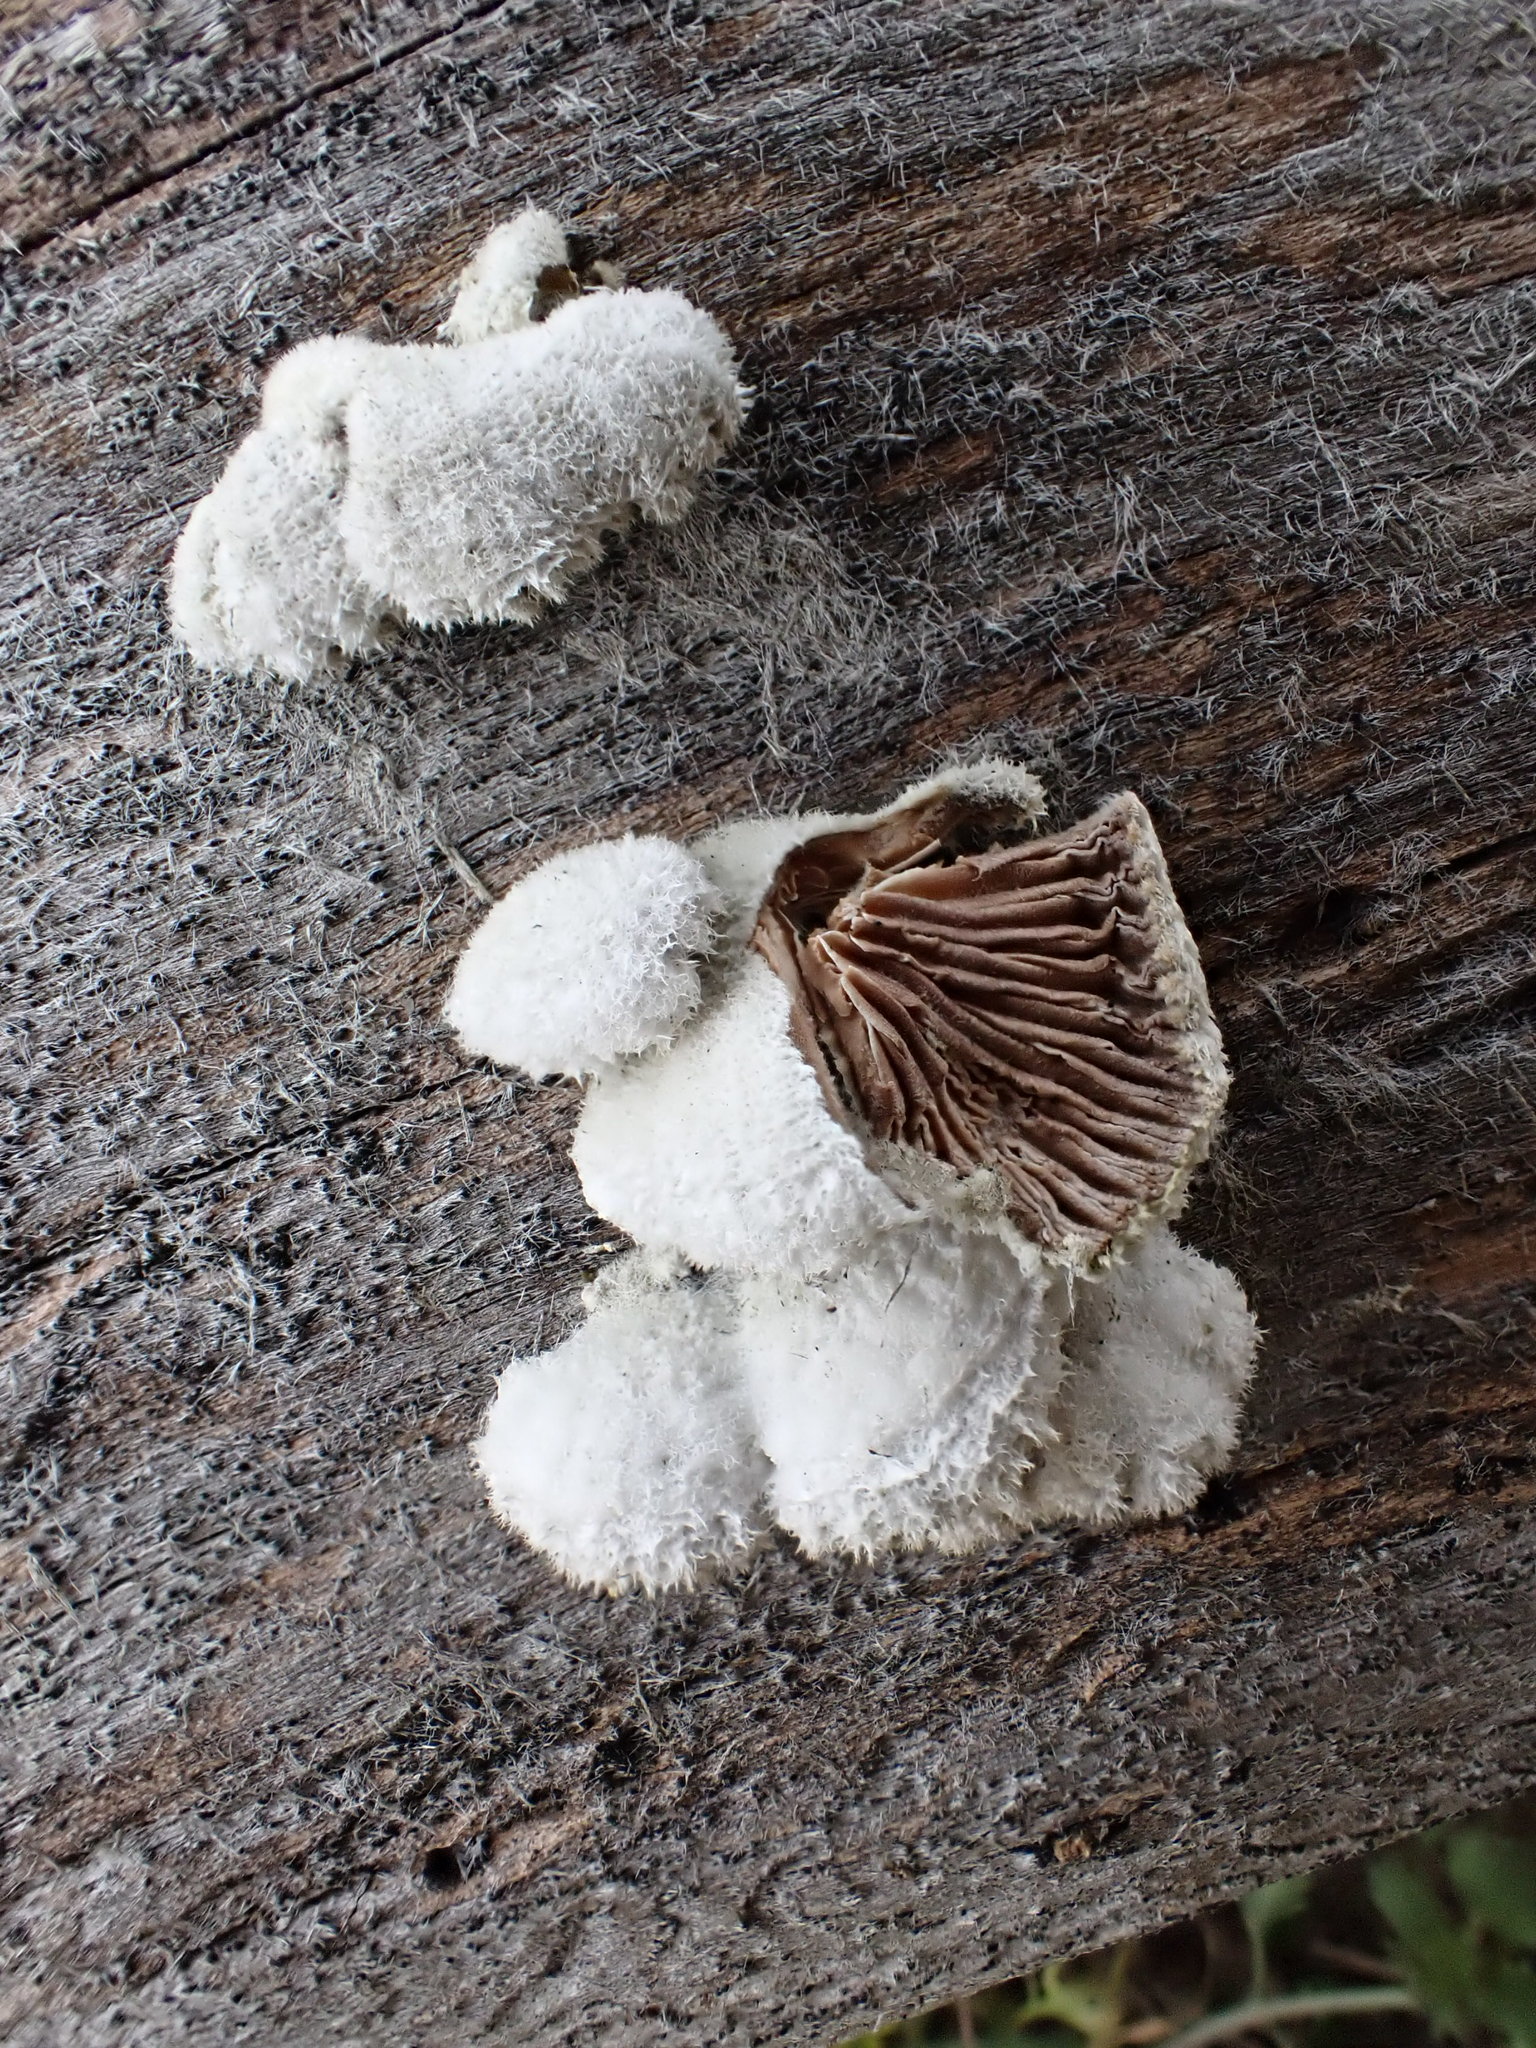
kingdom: Fungi
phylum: Basidiomycota
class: Agaricomycetes
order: Agaricales
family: Schizophyllaceae
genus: Schizophyllum
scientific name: Schizophyllum commune
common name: Common porecrust
